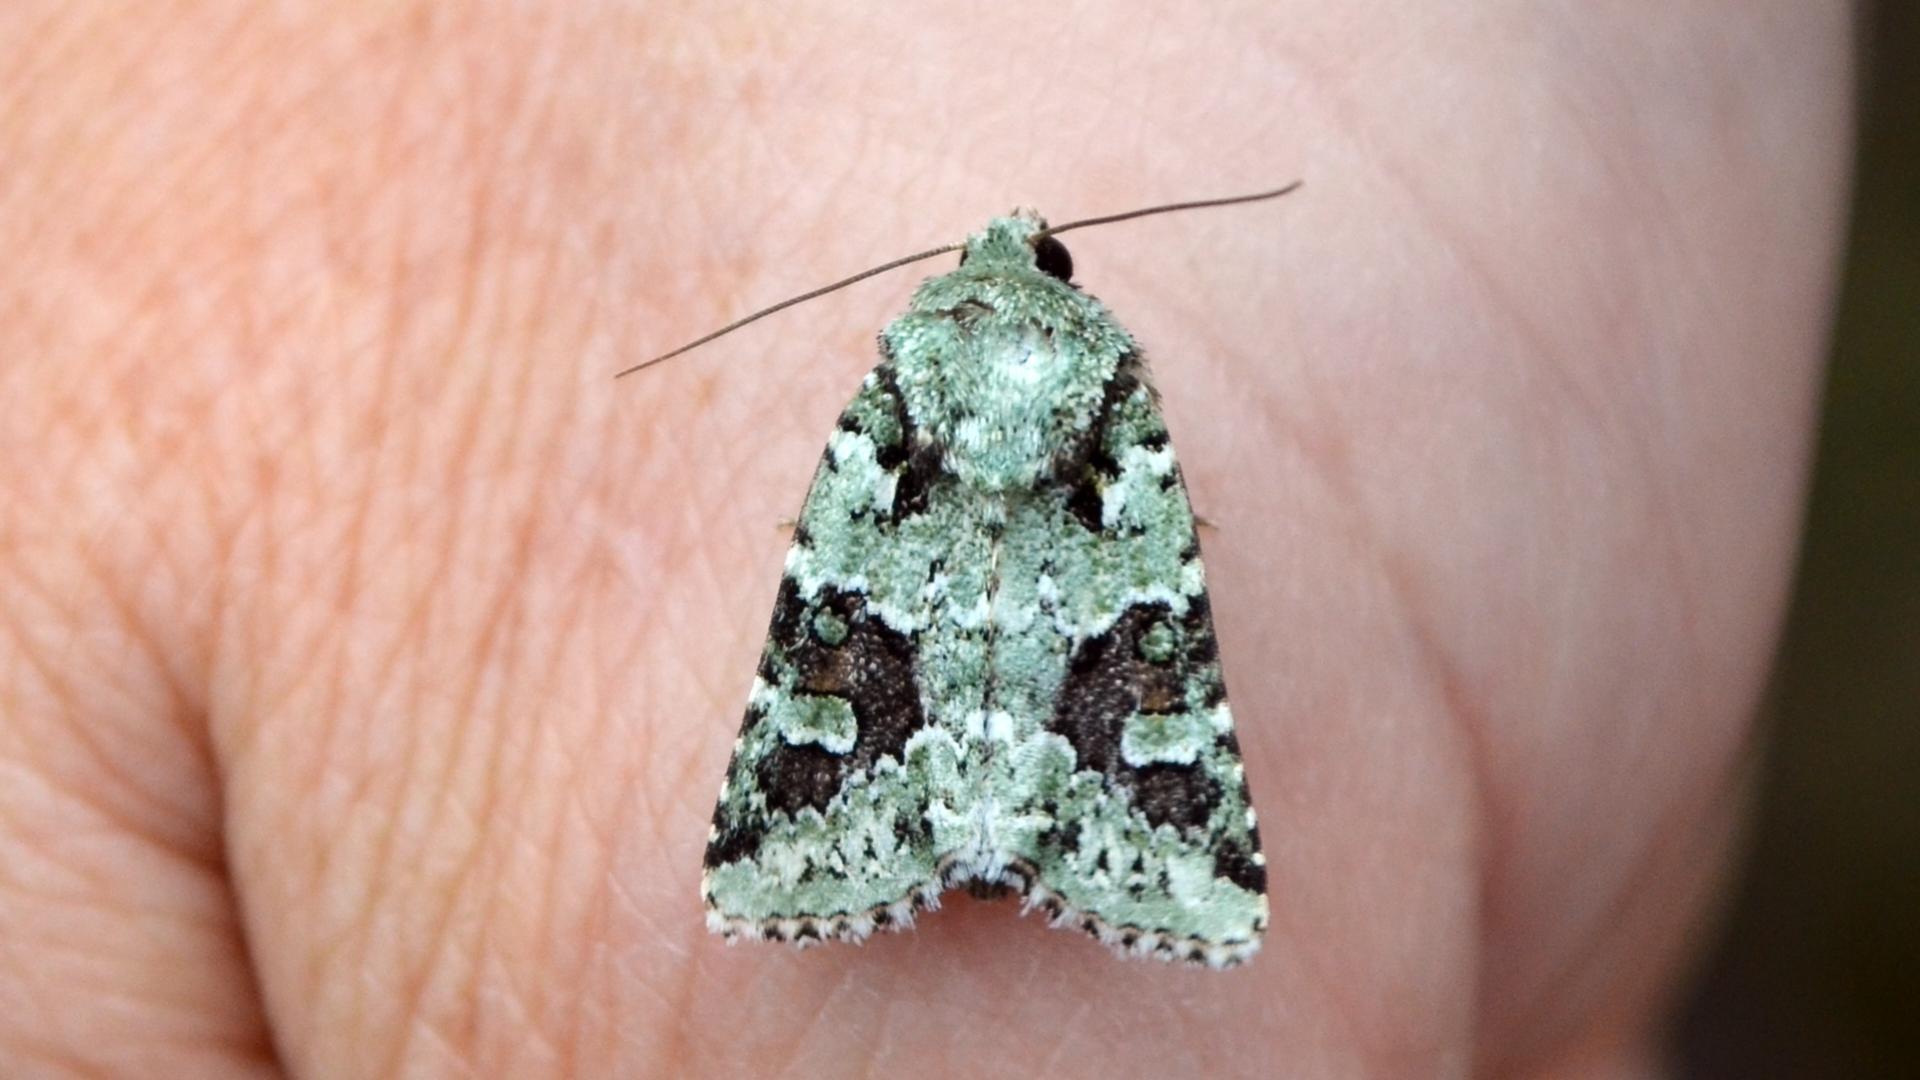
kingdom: Animalia
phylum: Arthropoda
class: Insecta
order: Lepidoptera
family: Noctuidae
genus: Lacinipolia
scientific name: Lacinipolia laudabilis
